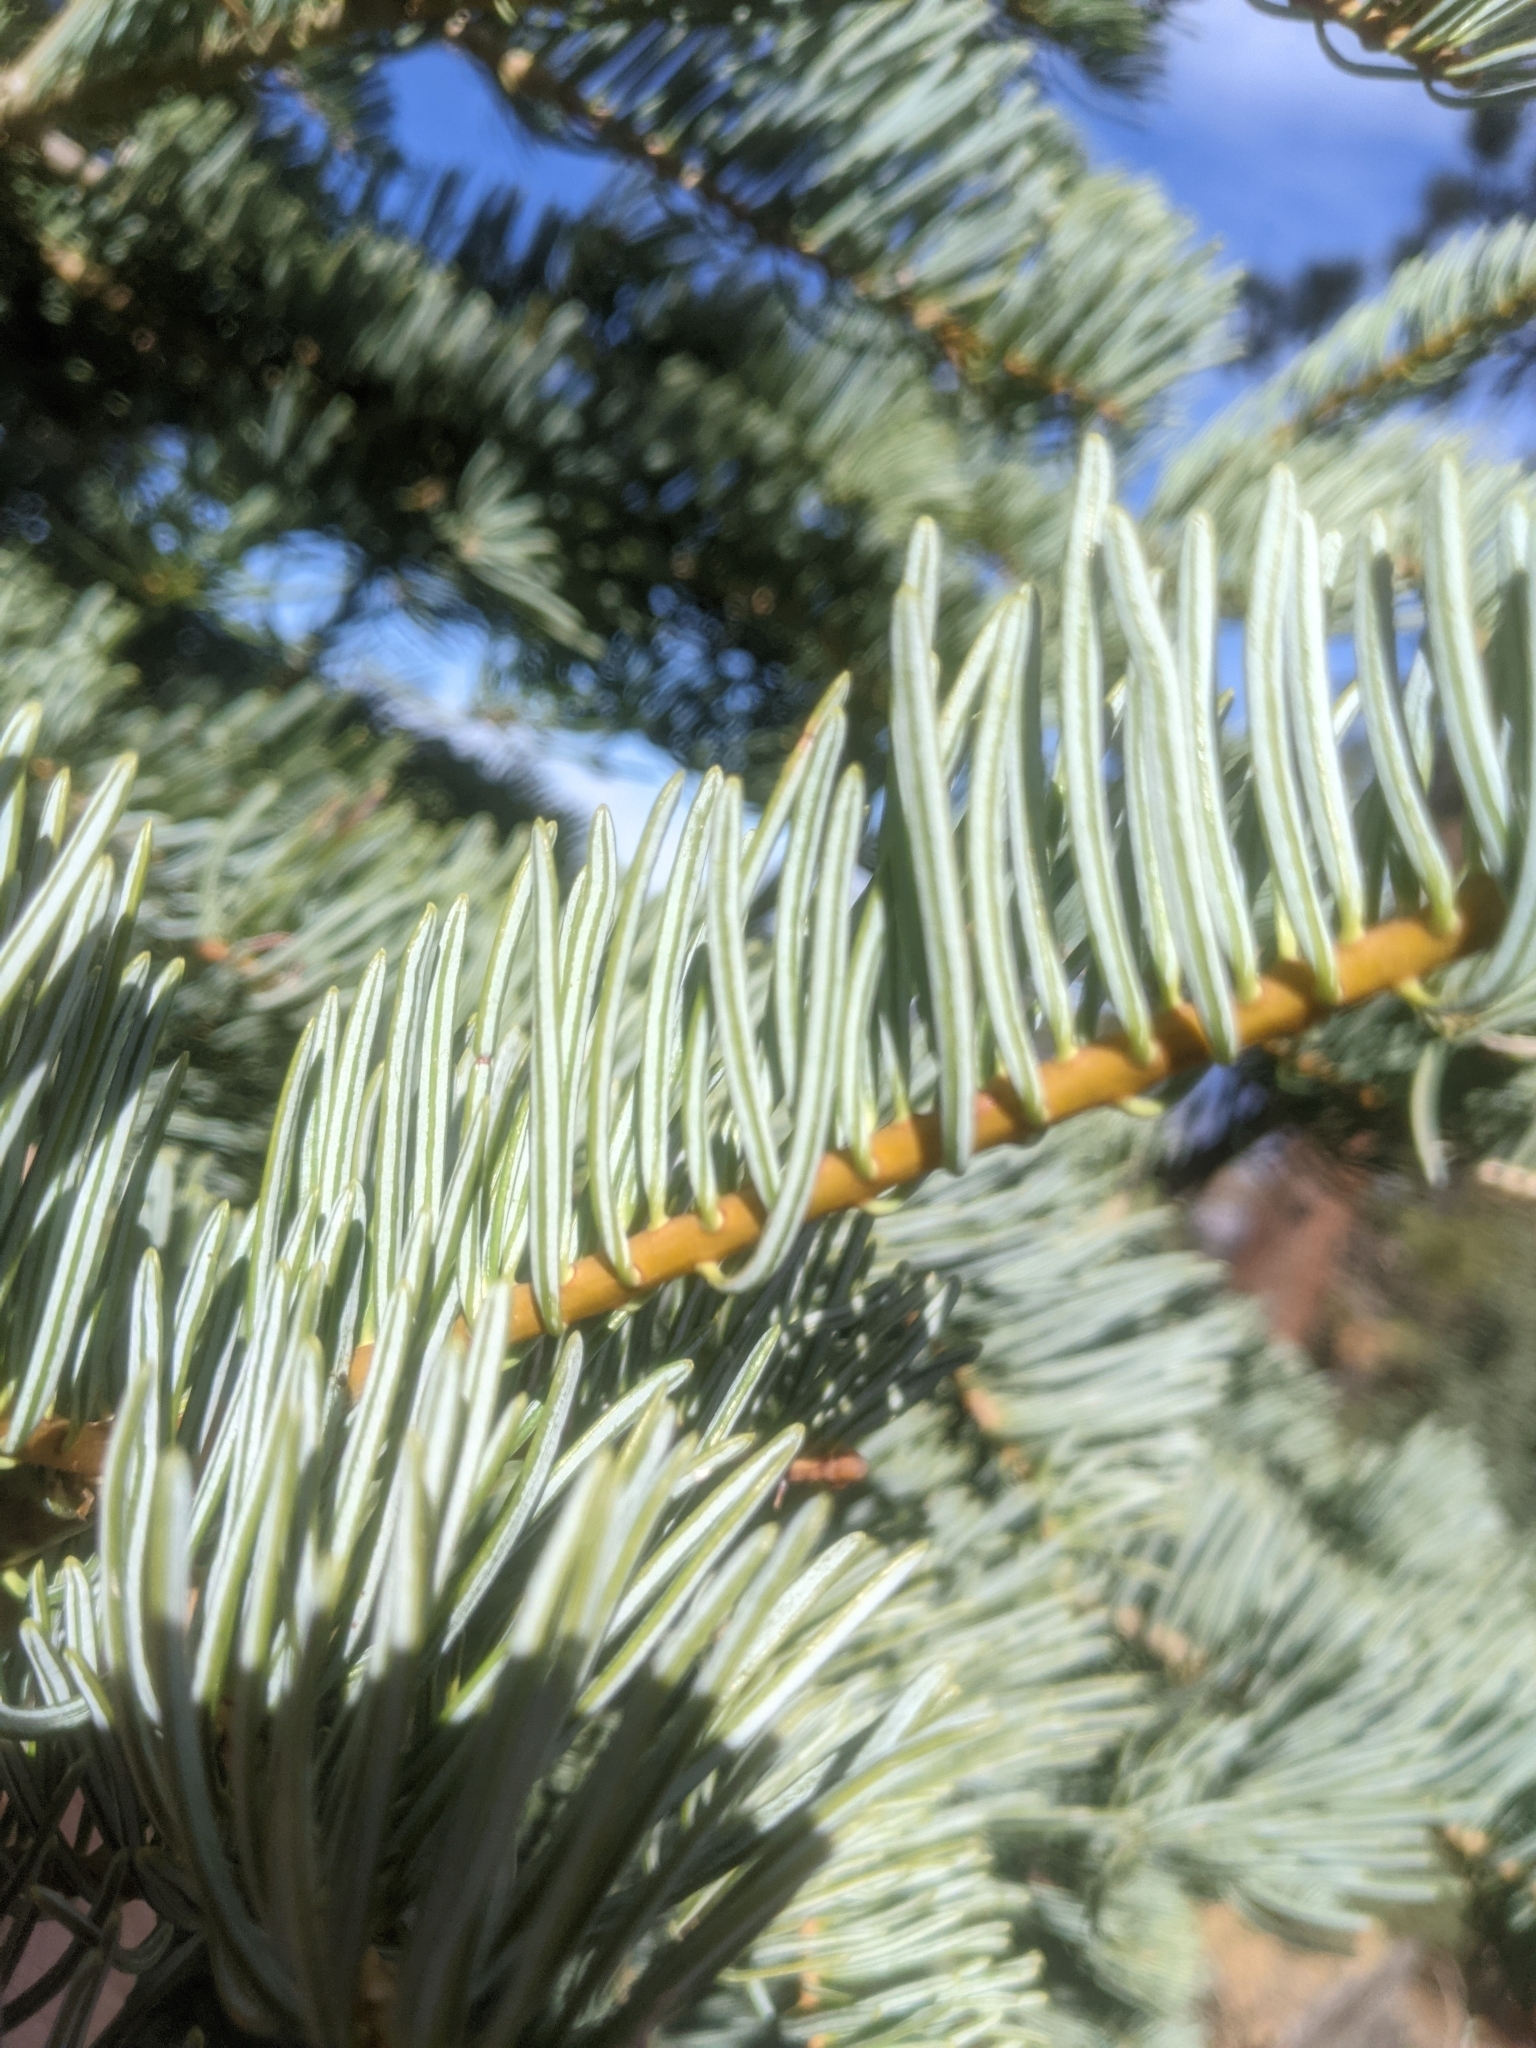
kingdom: Plantae
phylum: Tracheophyta
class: Pinopsida
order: Pinales
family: Pinaceae
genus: Abies
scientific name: Abies concolor
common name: Colorado fir
